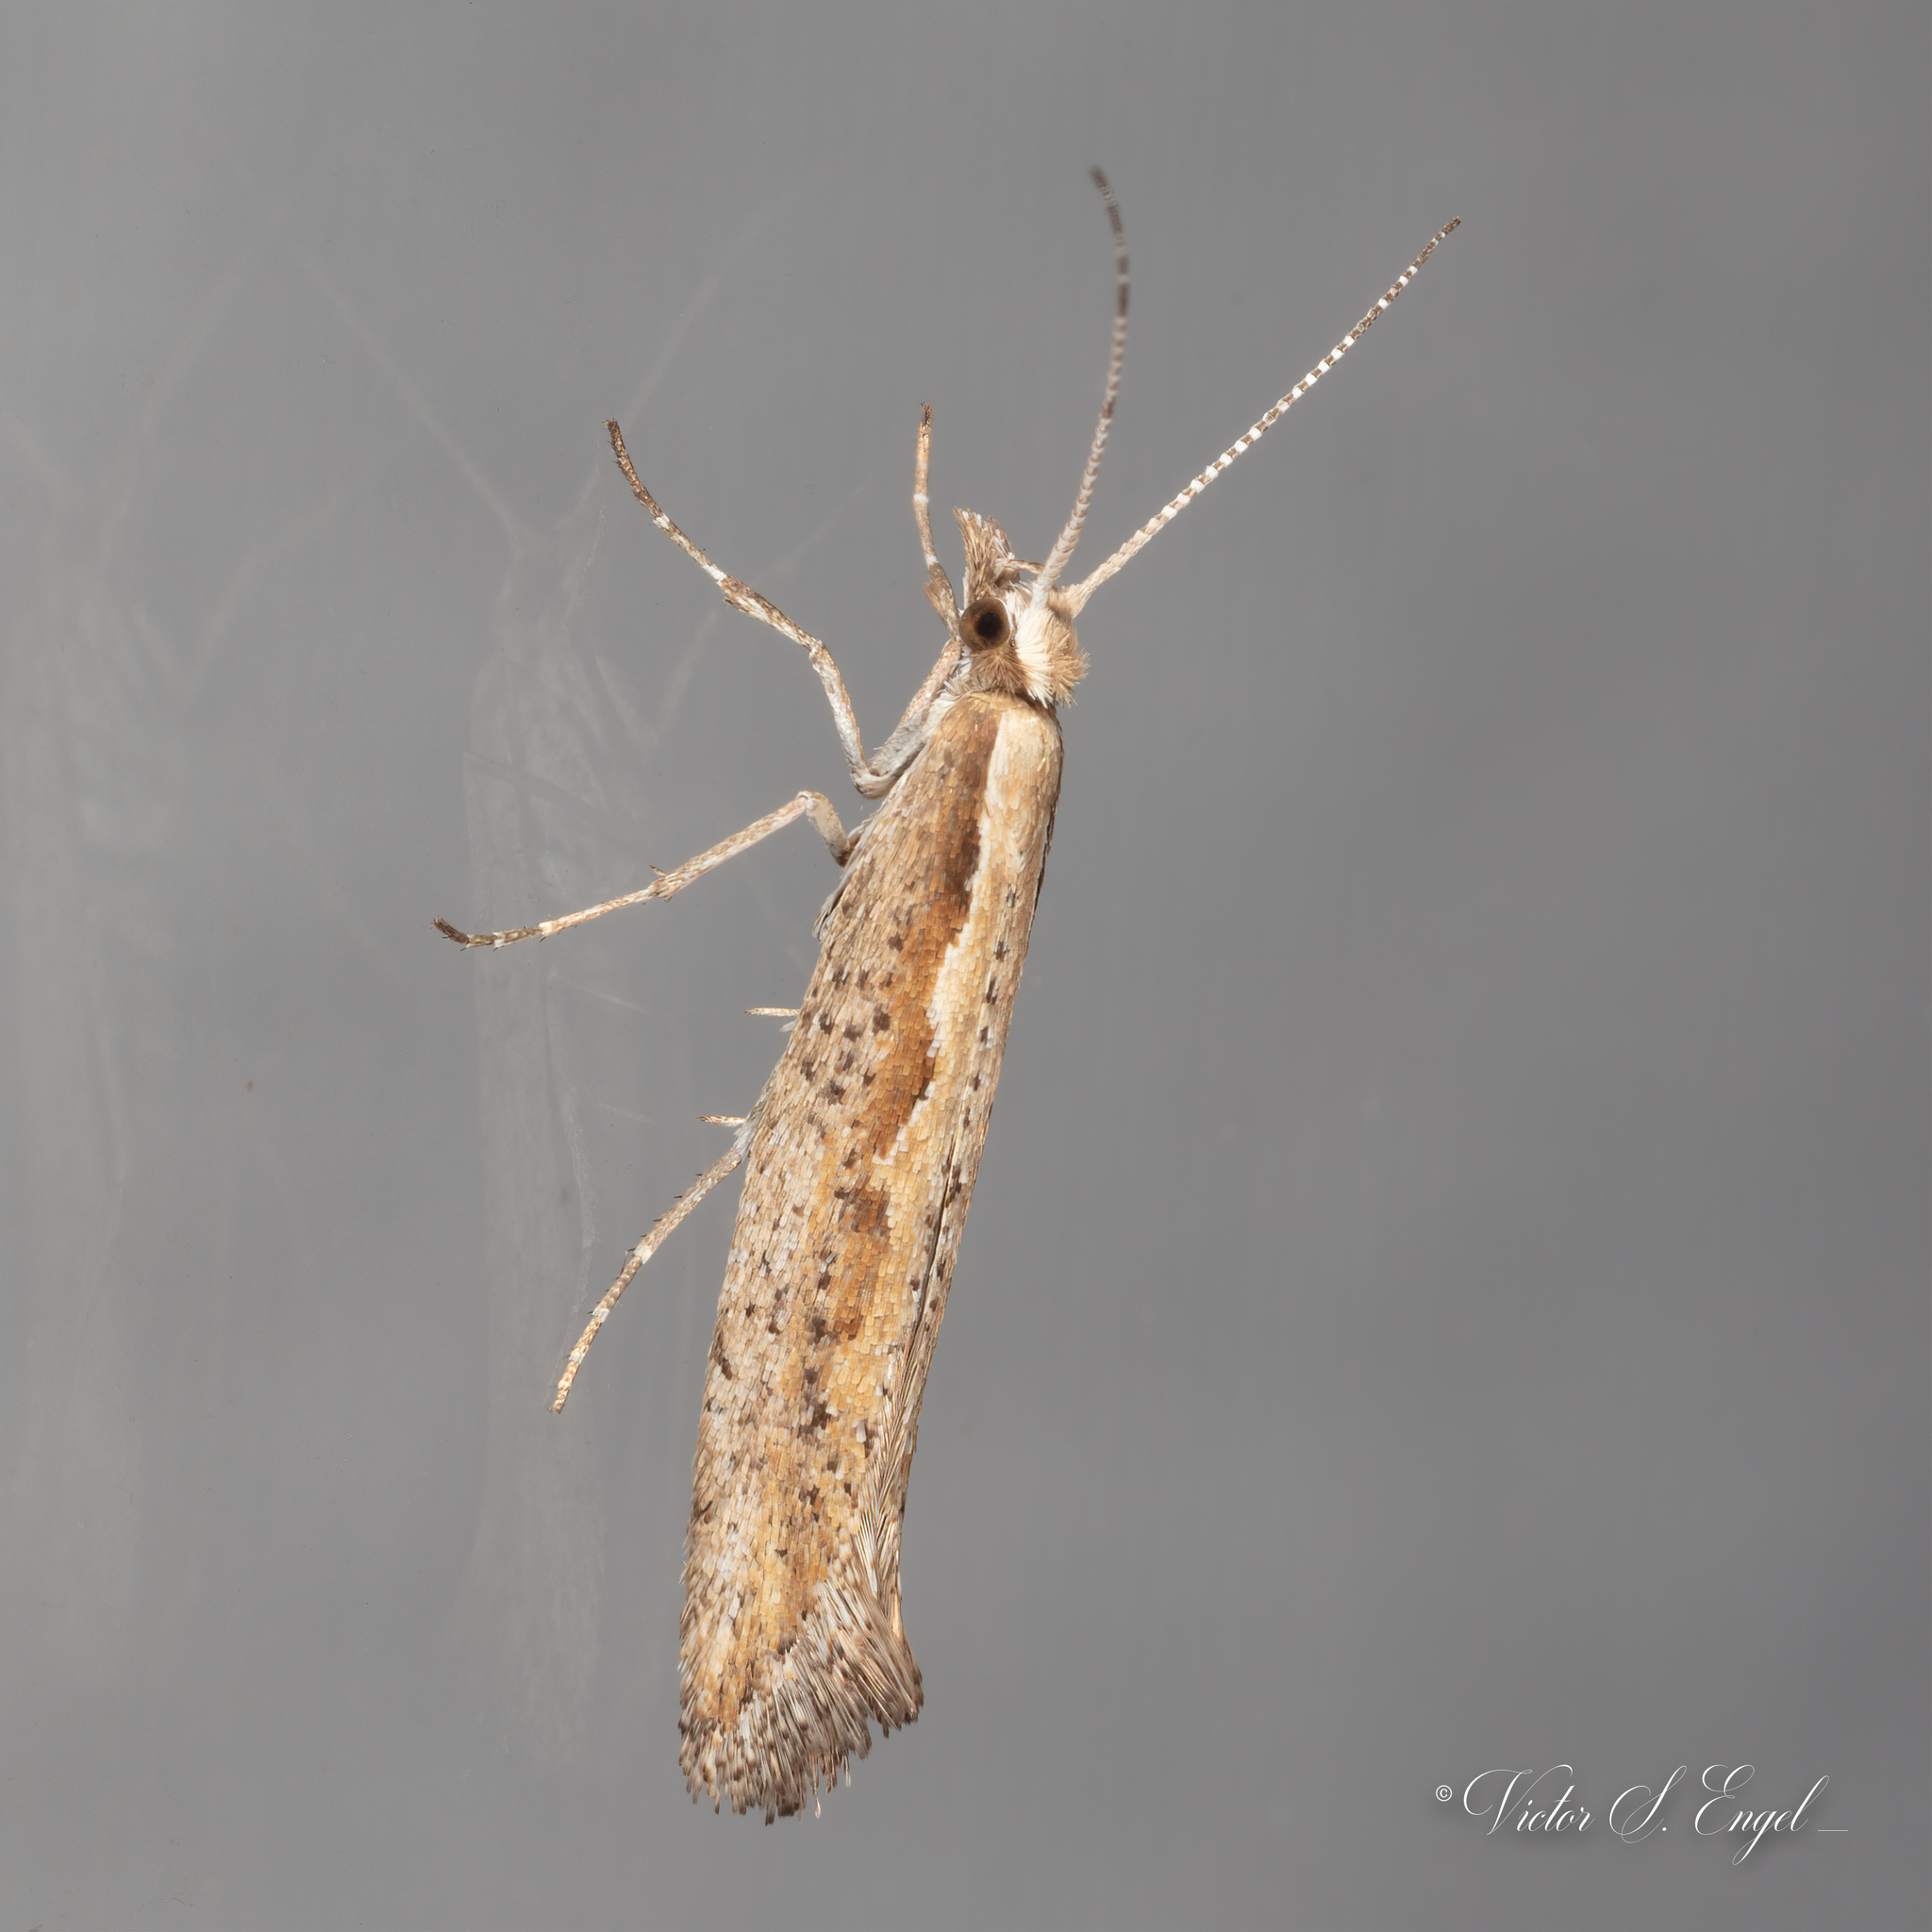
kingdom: Animalia
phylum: Arthropoda
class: Insecta
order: Lepidoptera
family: Plutellidae
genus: Plutella
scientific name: Plutella xylostella
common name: Diamond-back moth
